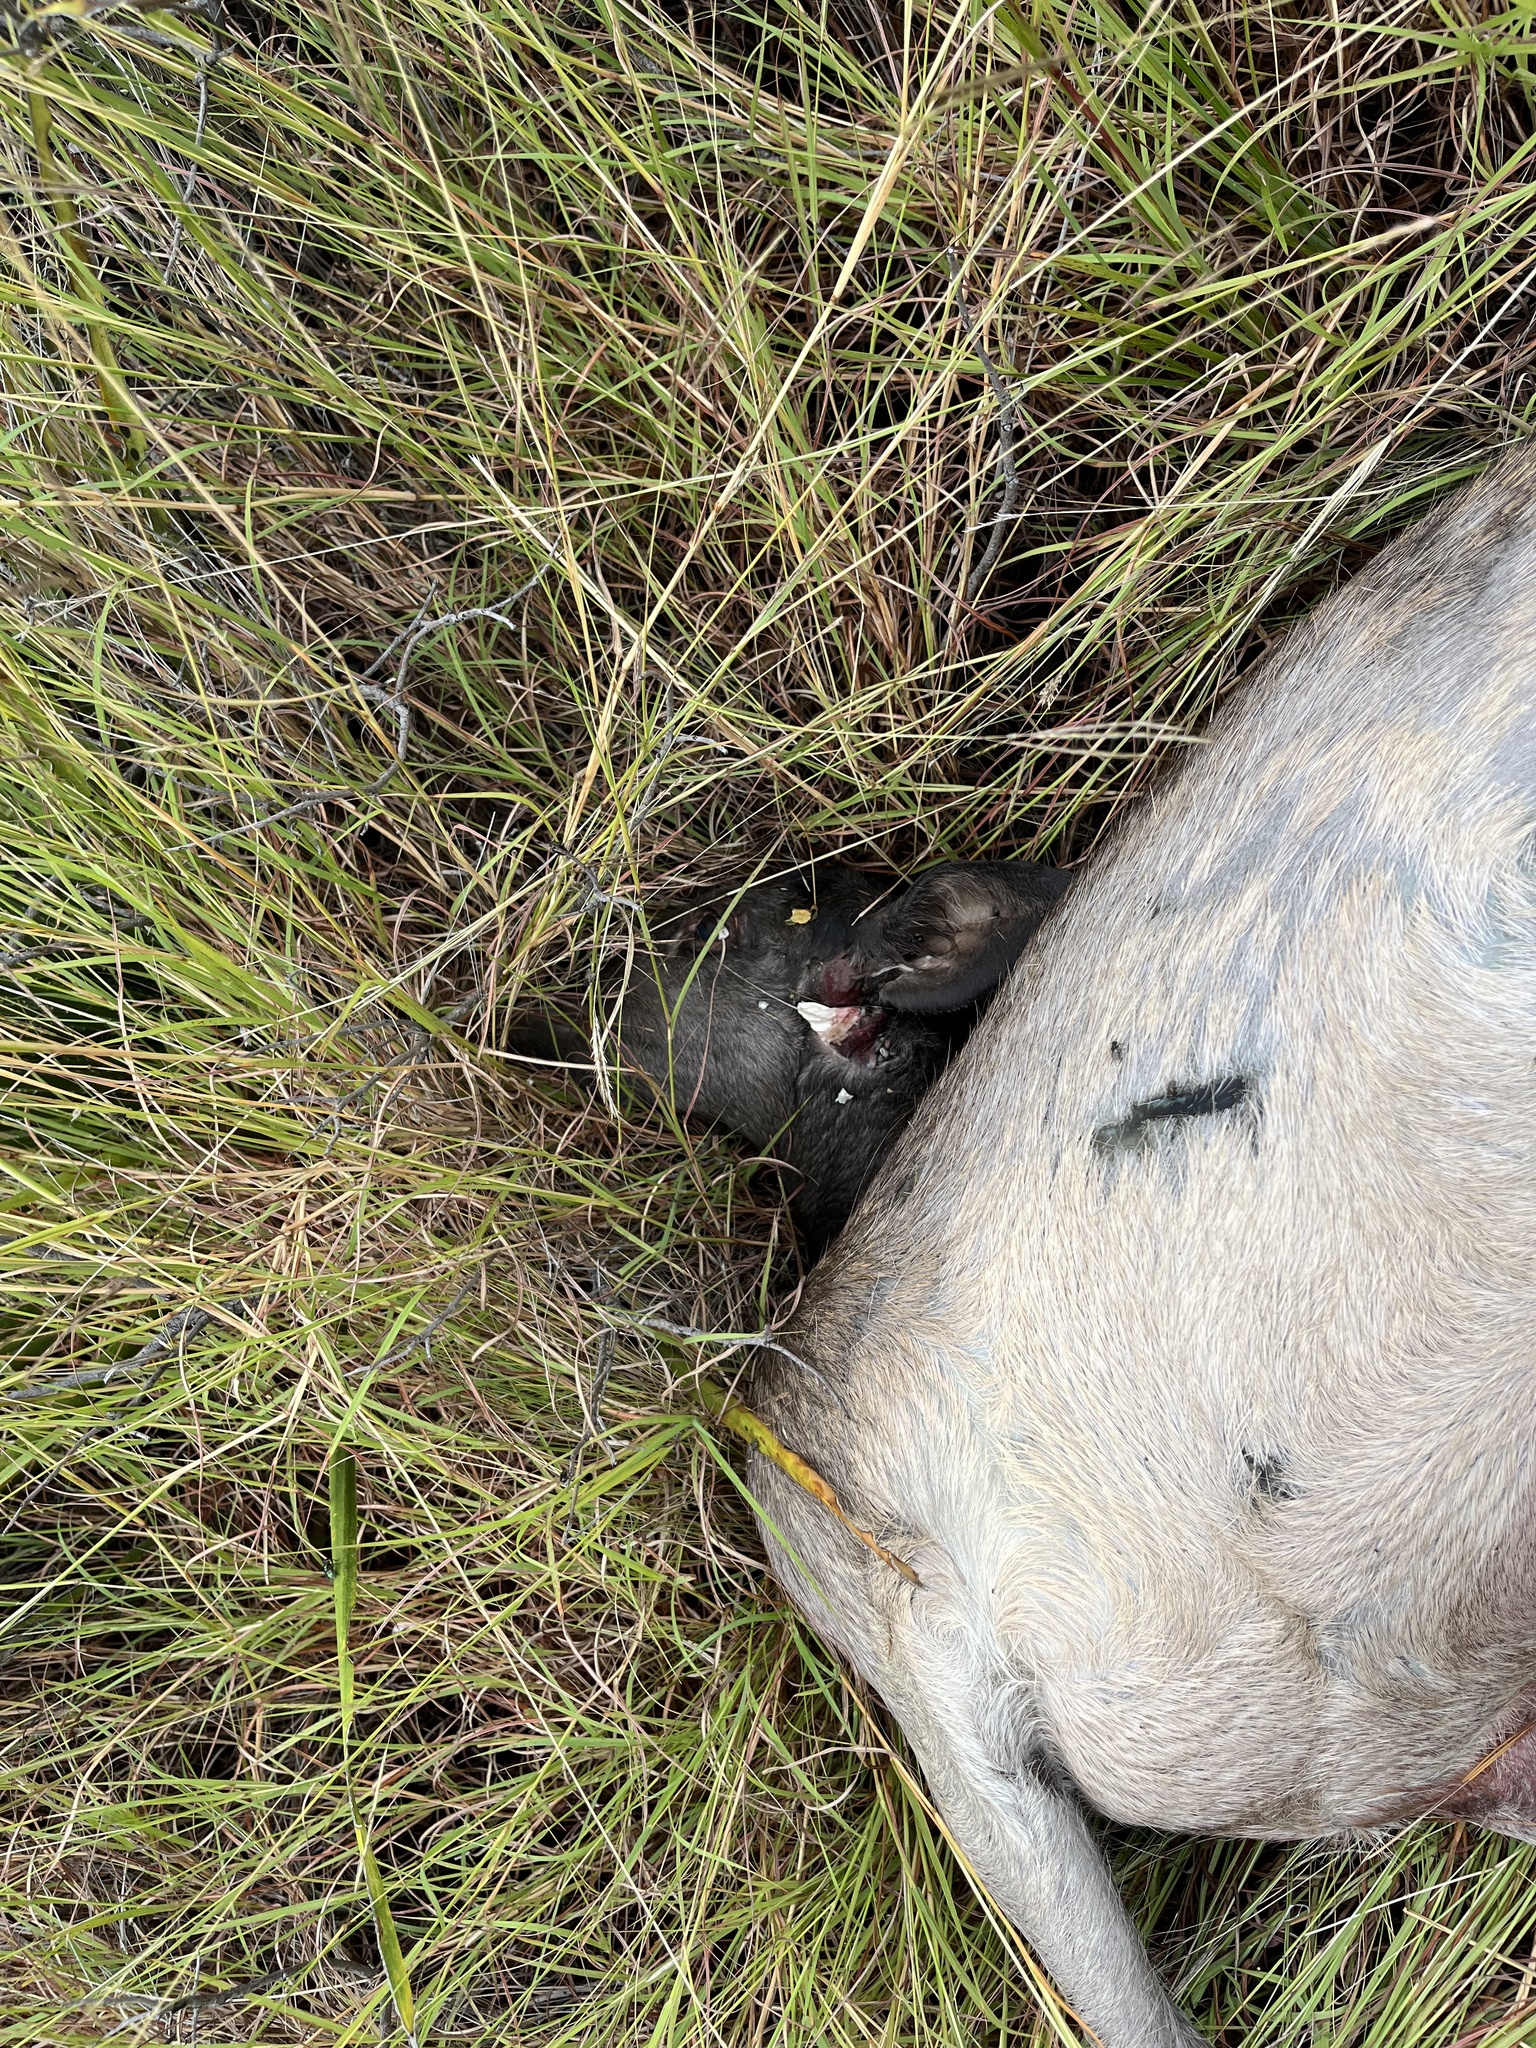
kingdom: Animalia
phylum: Chordata
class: Mammalia
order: Artiodactyla
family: Cervidae
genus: Dama
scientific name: Dama dama
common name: Fallow deer
